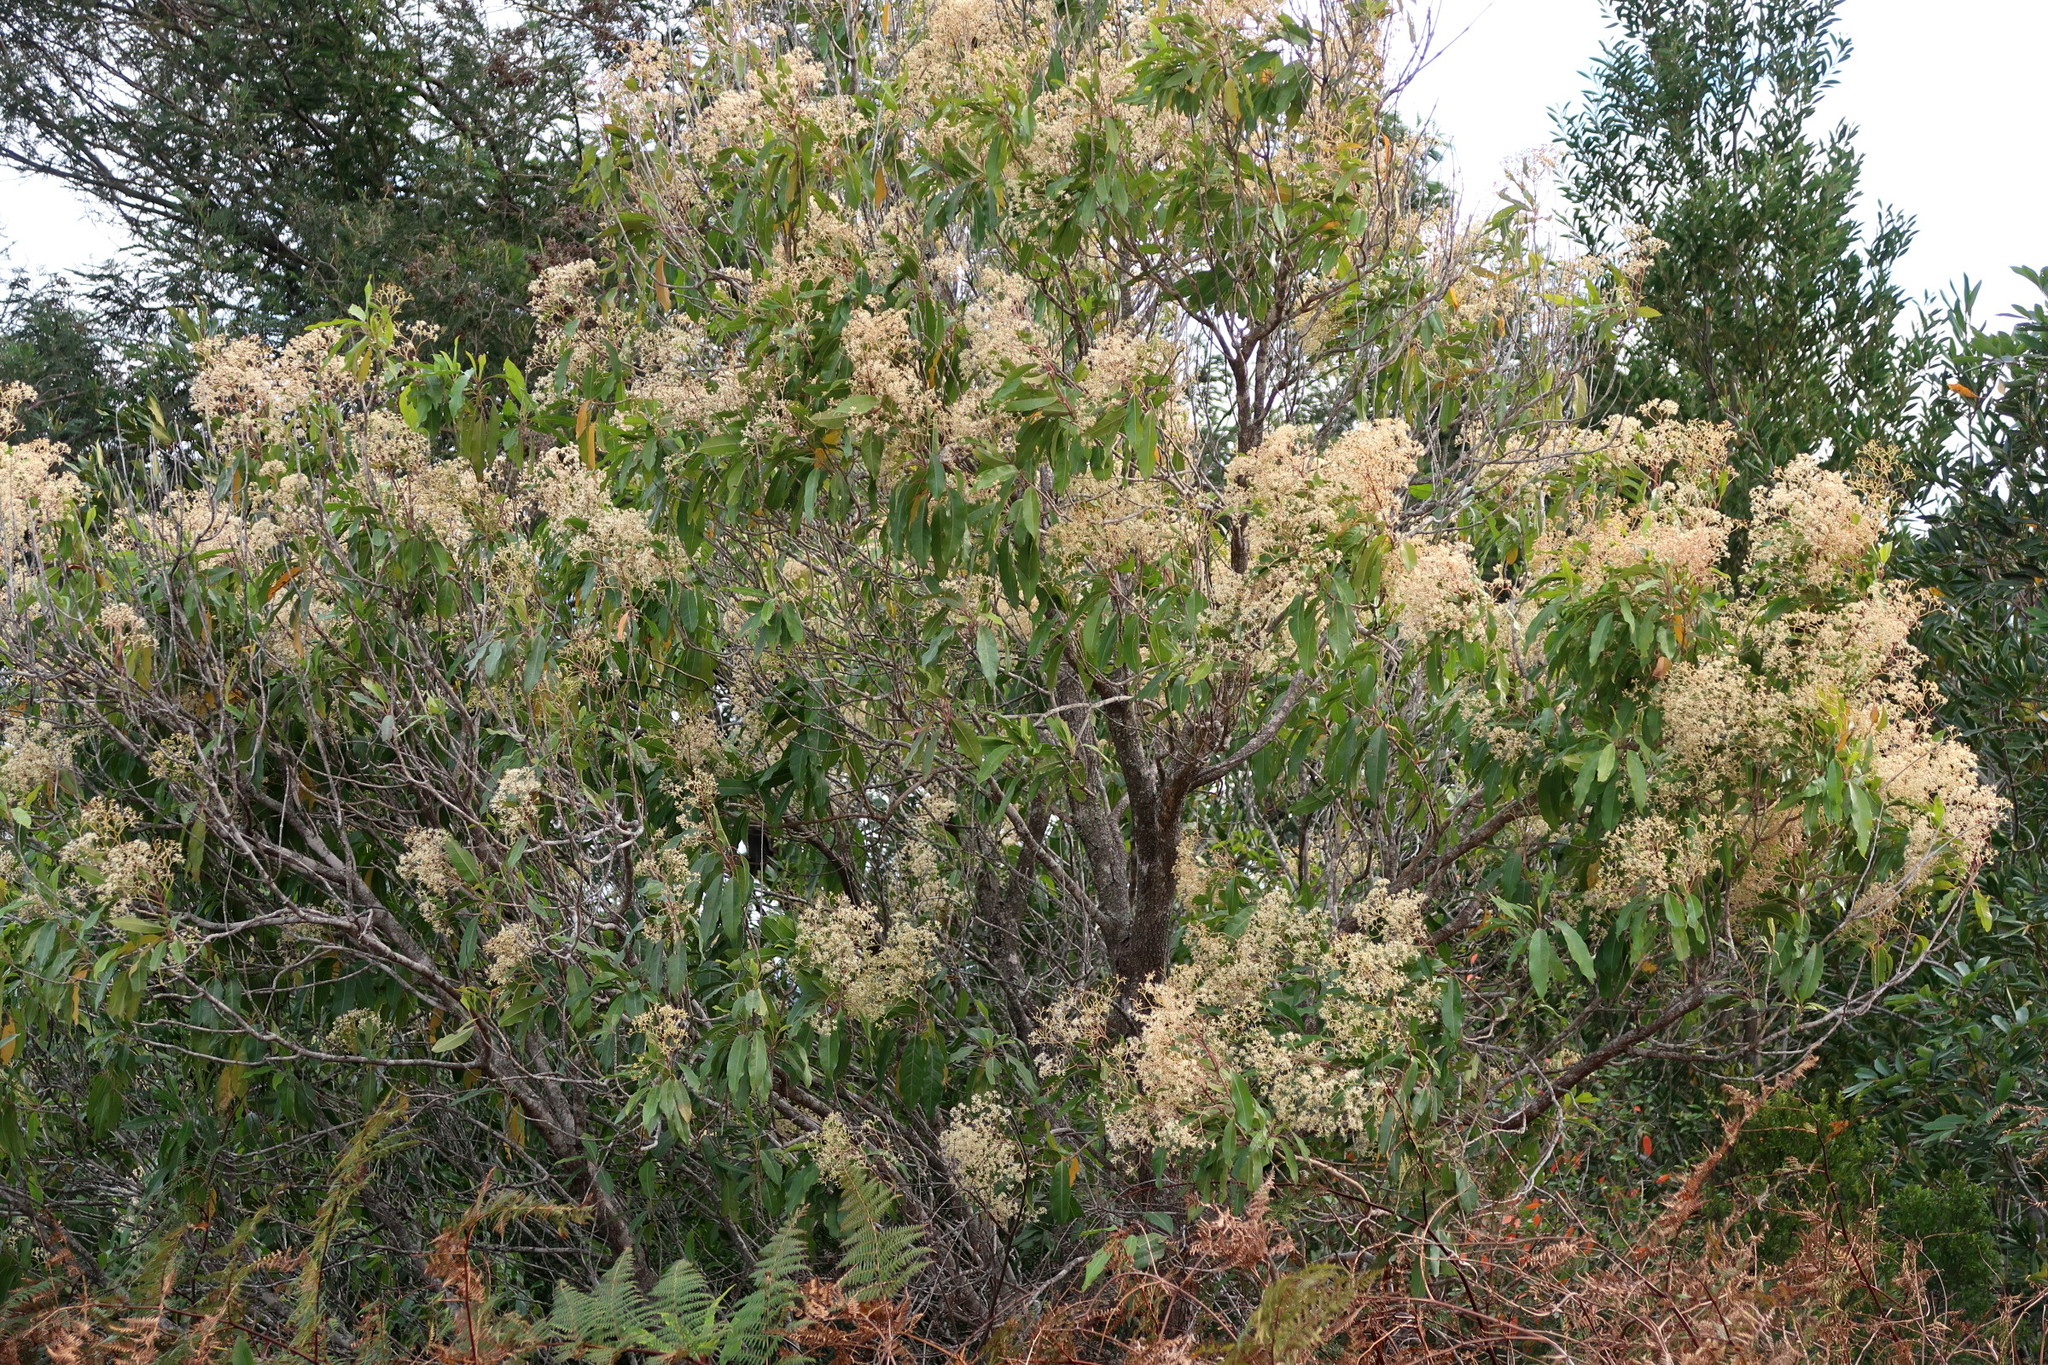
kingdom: Plantae
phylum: Tracheophyta
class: Magnoliopsida
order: Lamiales
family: Stilbaceae
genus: Nuxia
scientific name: Nuxia floribunda
